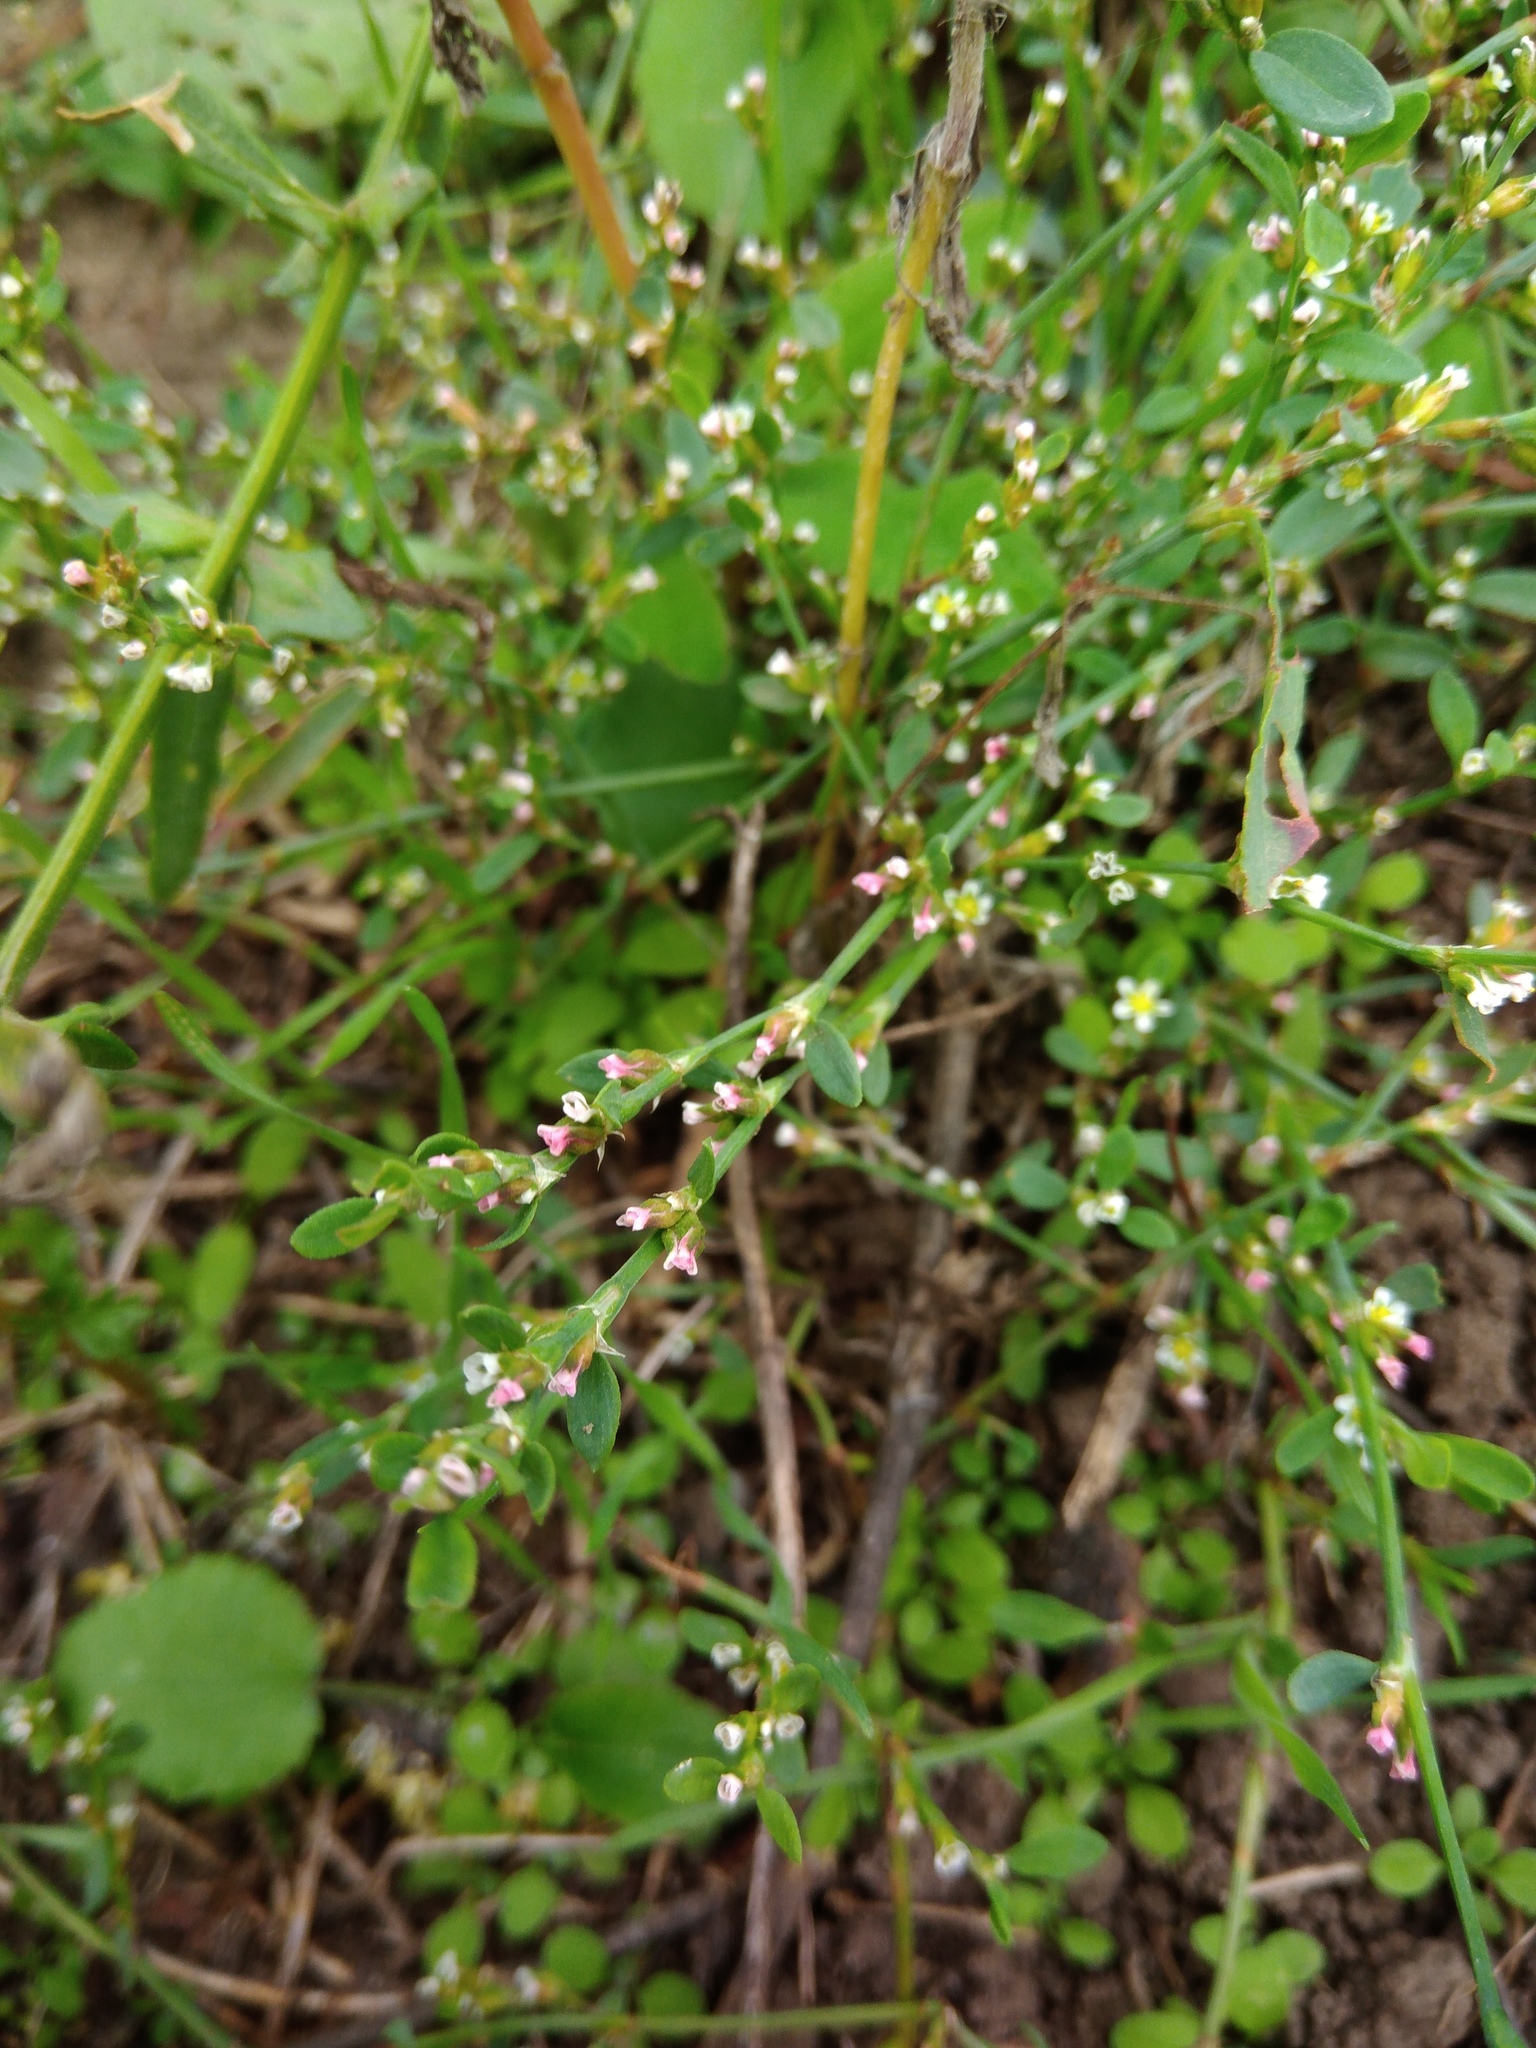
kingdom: Plantae
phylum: Tracheophyta
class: Magnoliopsida
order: Caryophyllales
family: Polygonaceae
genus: Polygonum
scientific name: Polygonum aviculare
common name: Prostrate knotweed
